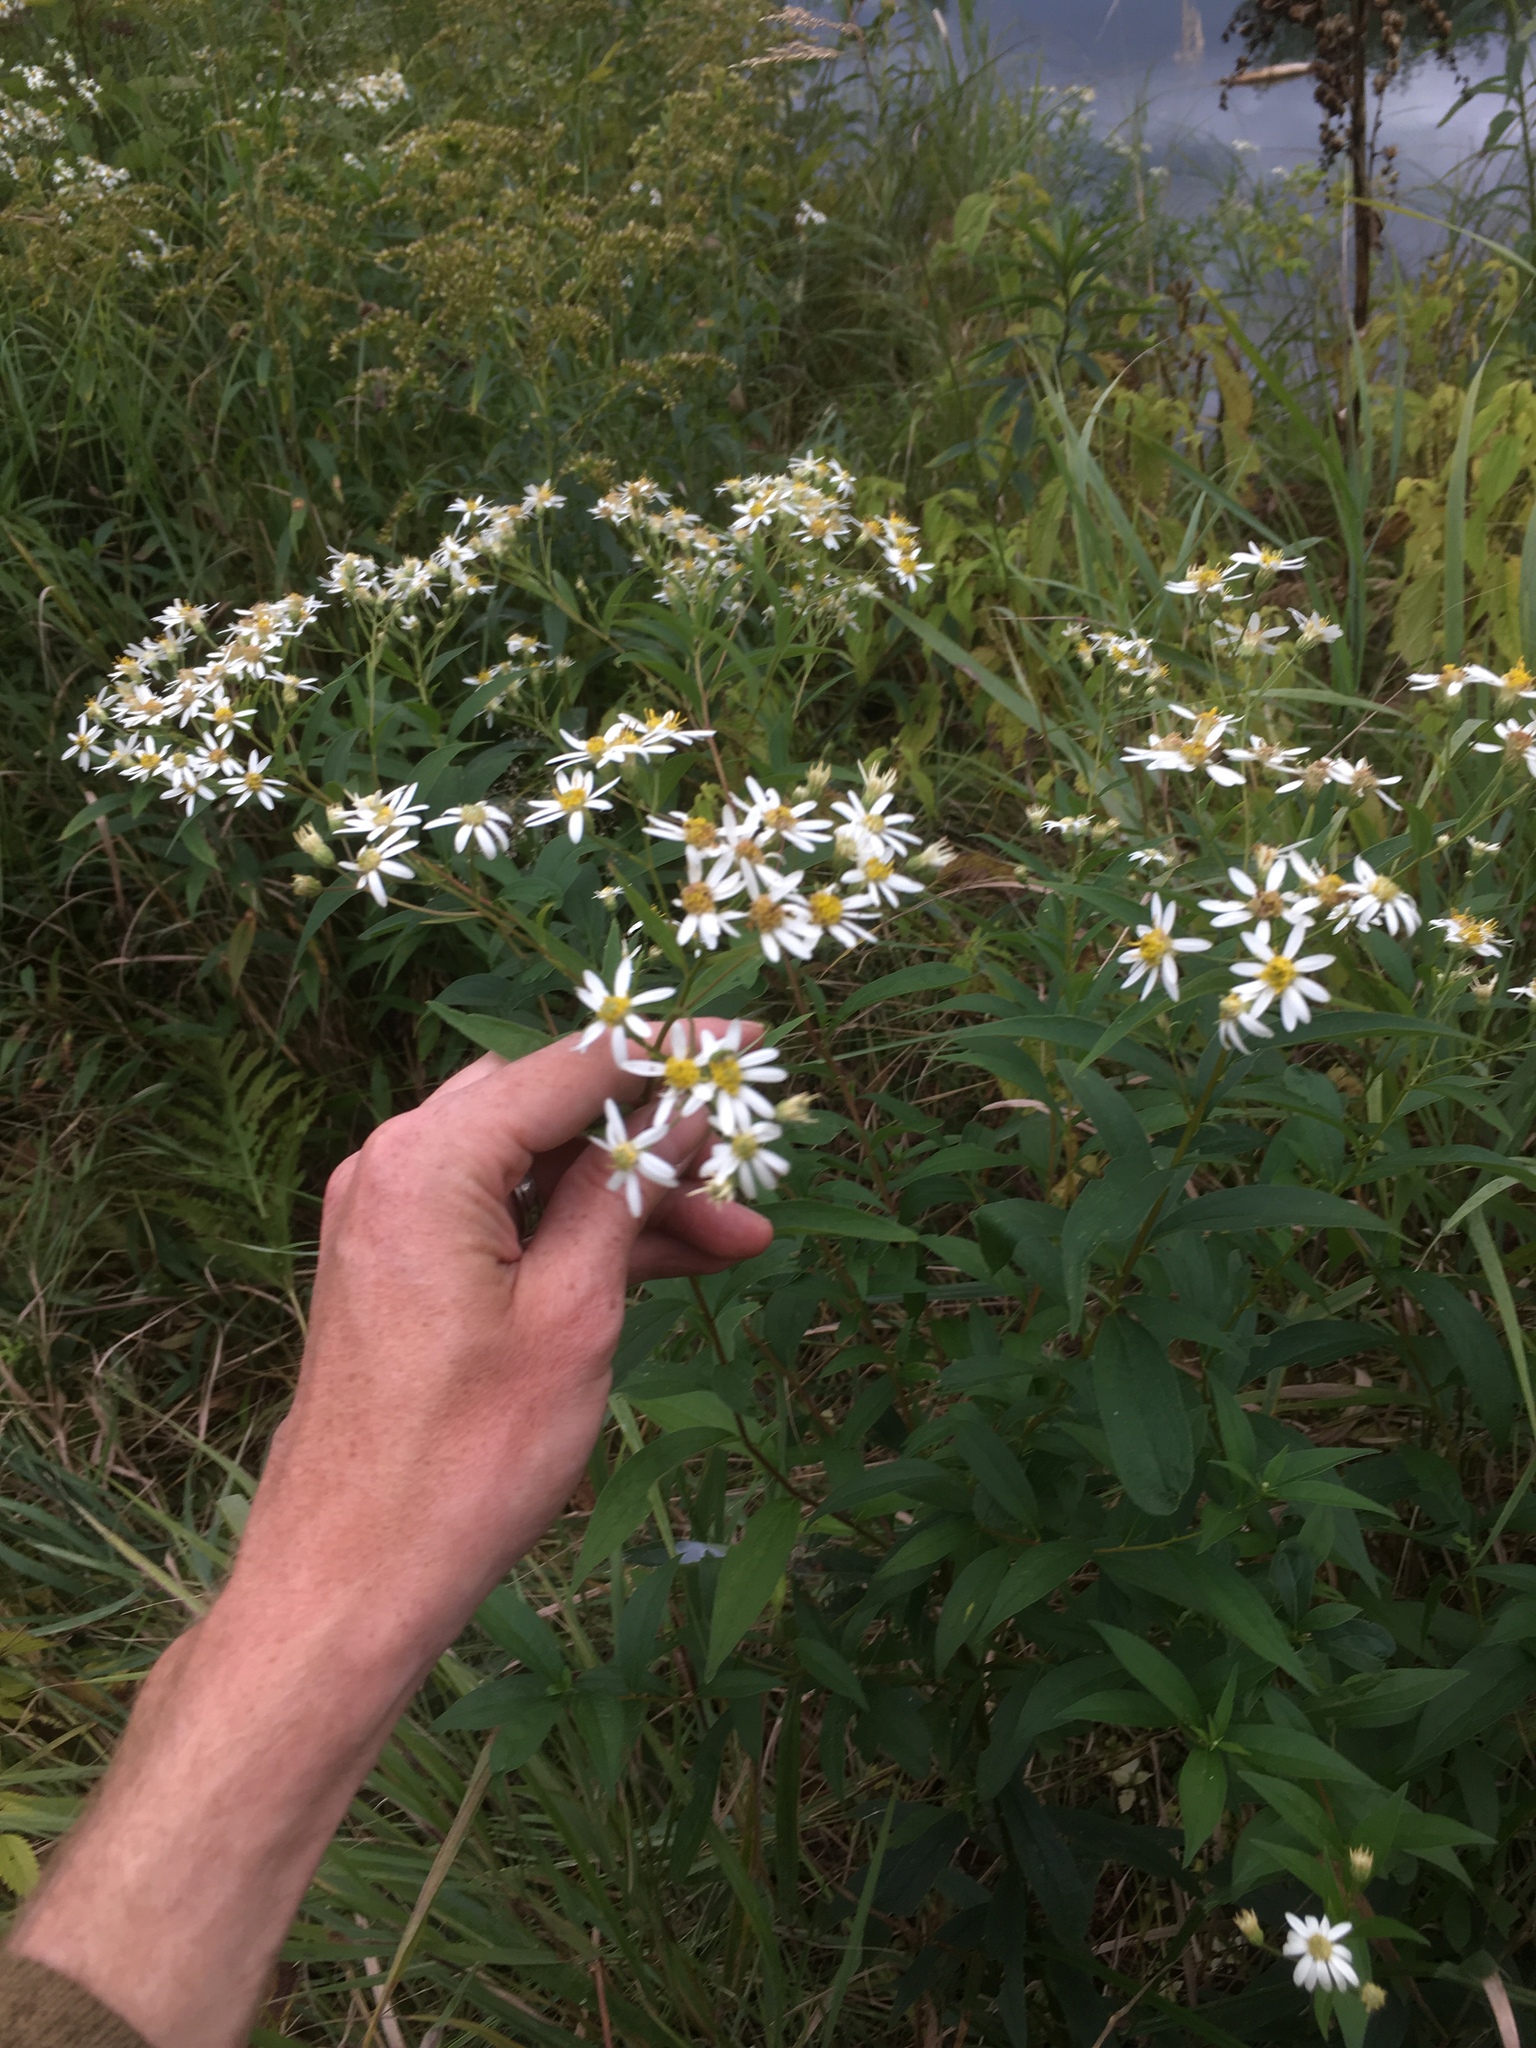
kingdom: Plantae
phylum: Tracheophyta
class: Magnoliopsida
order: Asterales
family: Asteraceae
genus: Doellingeria
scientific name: Doellingeria umbellata
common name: Flat-top white aster
